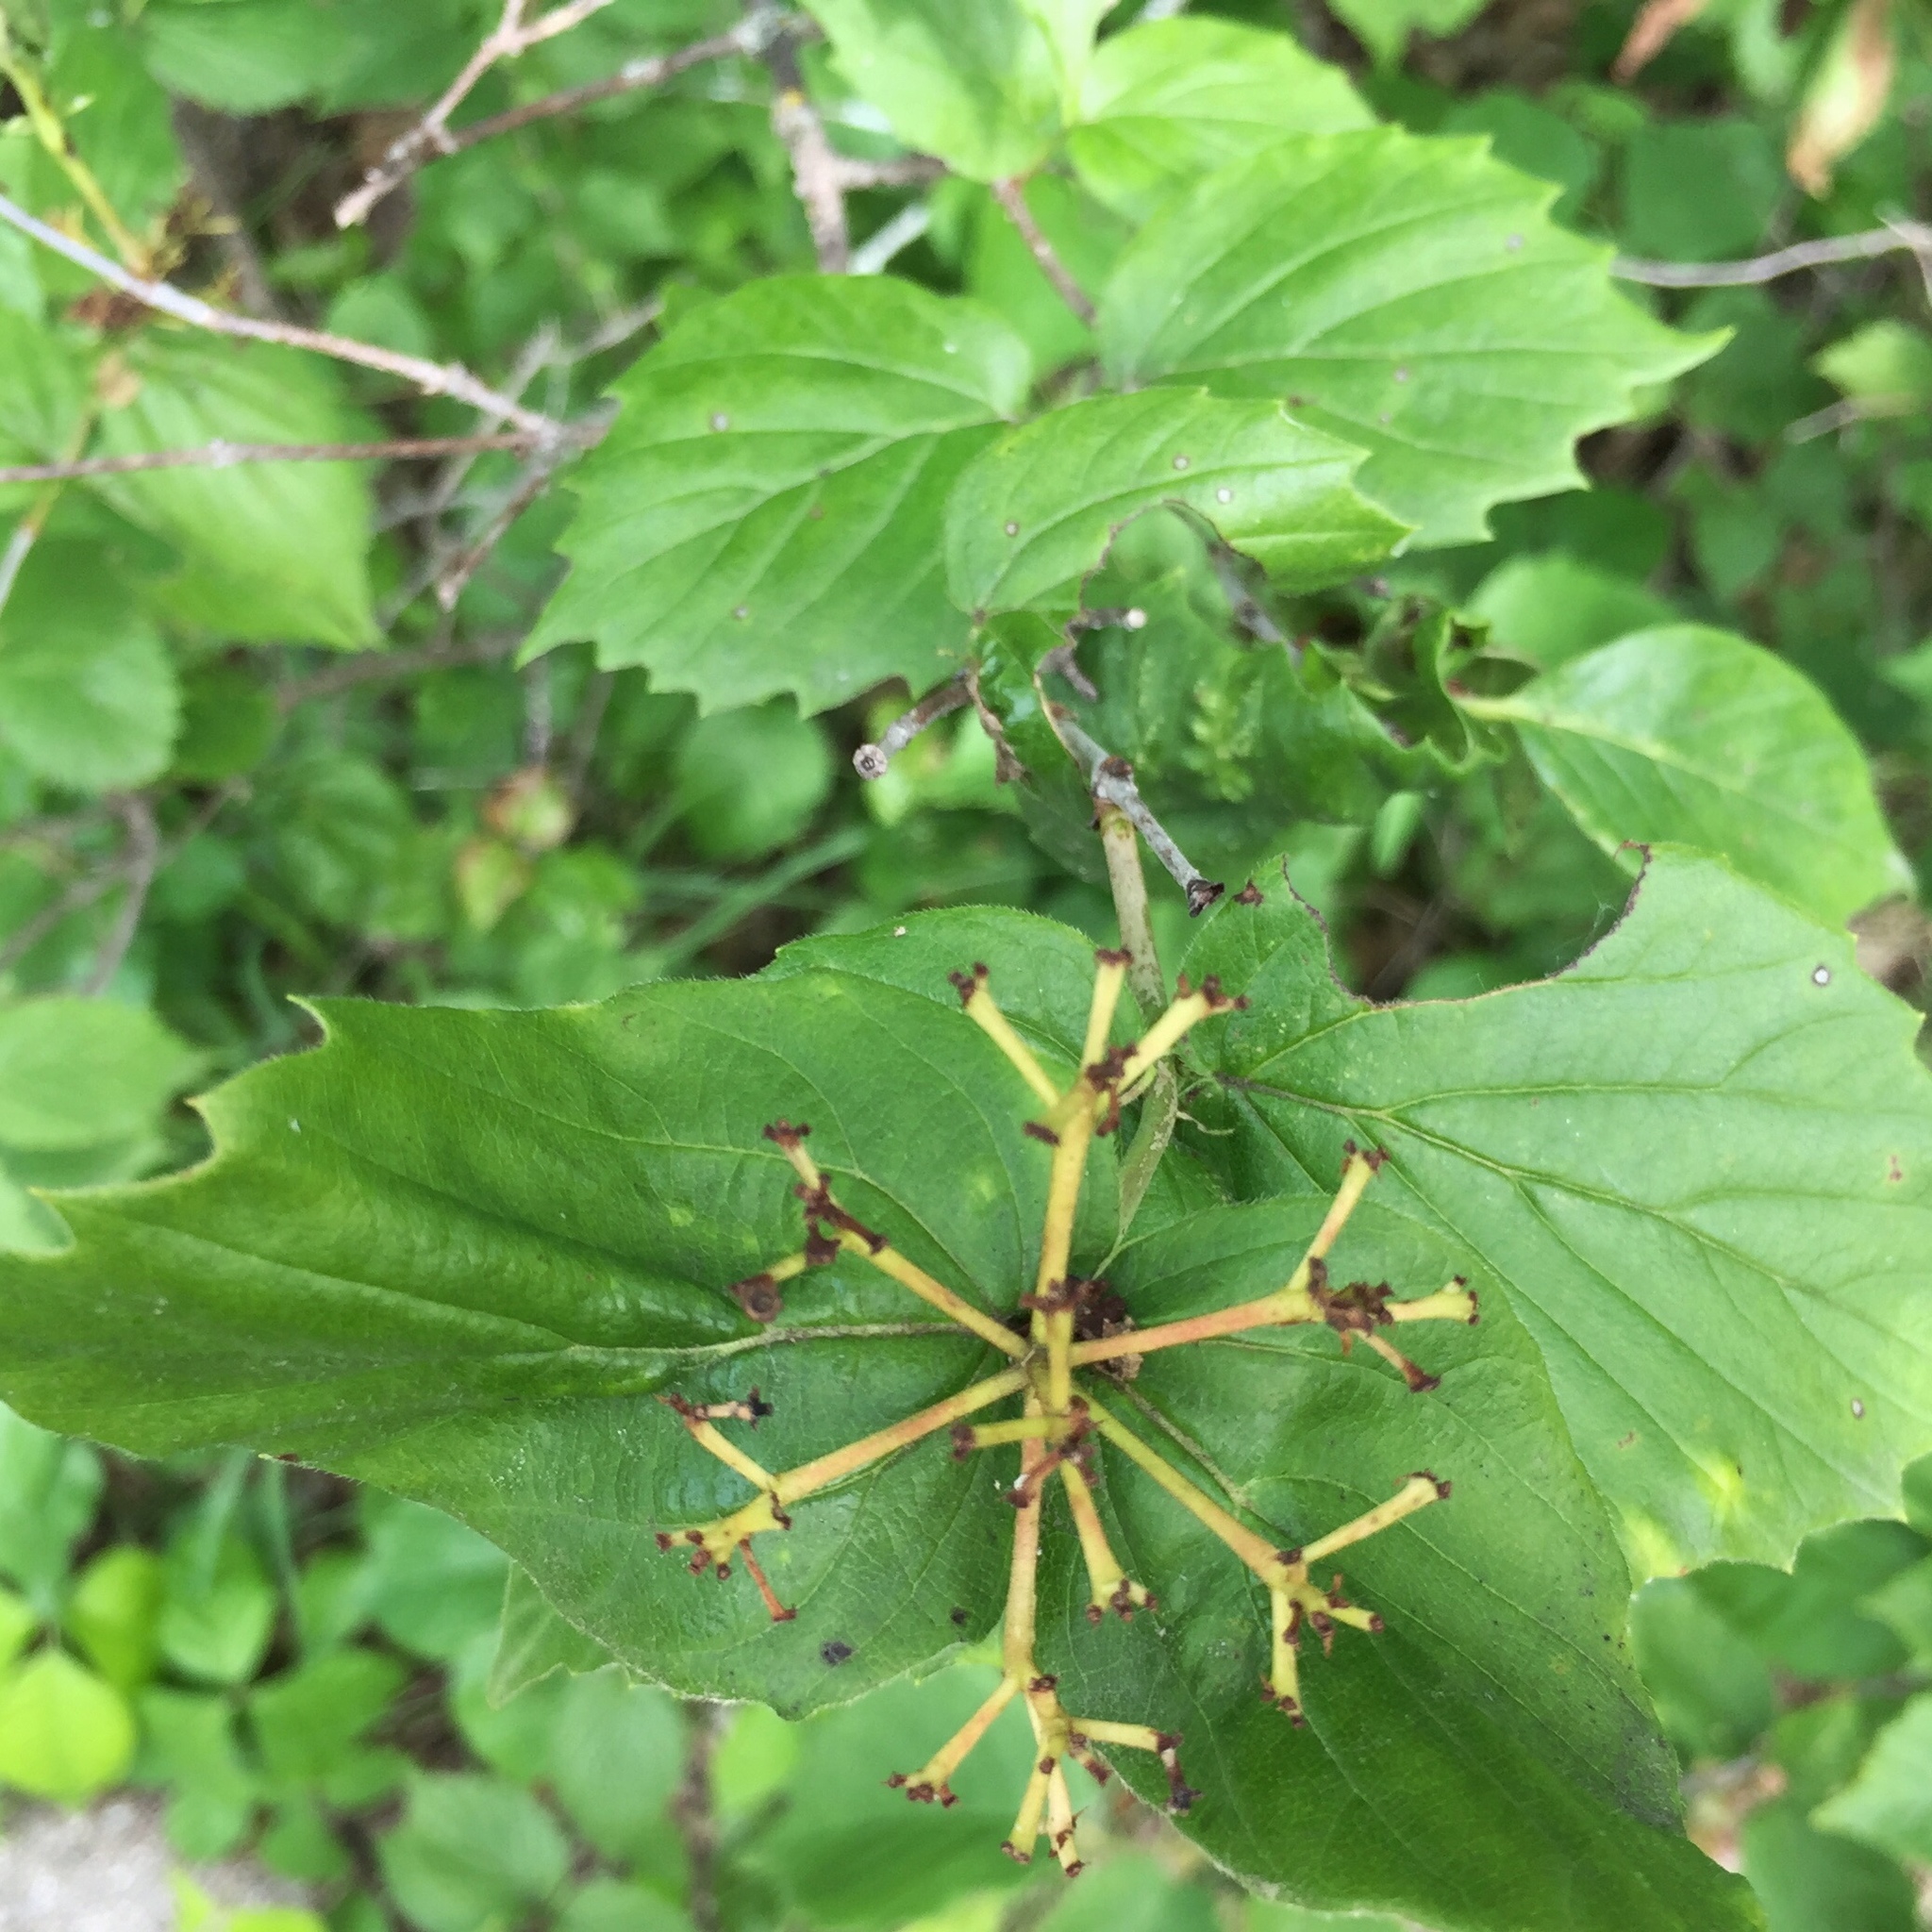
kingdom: Plantae
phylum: Tracheophyta
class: Magnoliopsida
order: Dipsacales
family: Viburnaceae
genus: Viburnum
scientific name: Viburnum rafinesqueanum
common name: Downy arrow-wood
